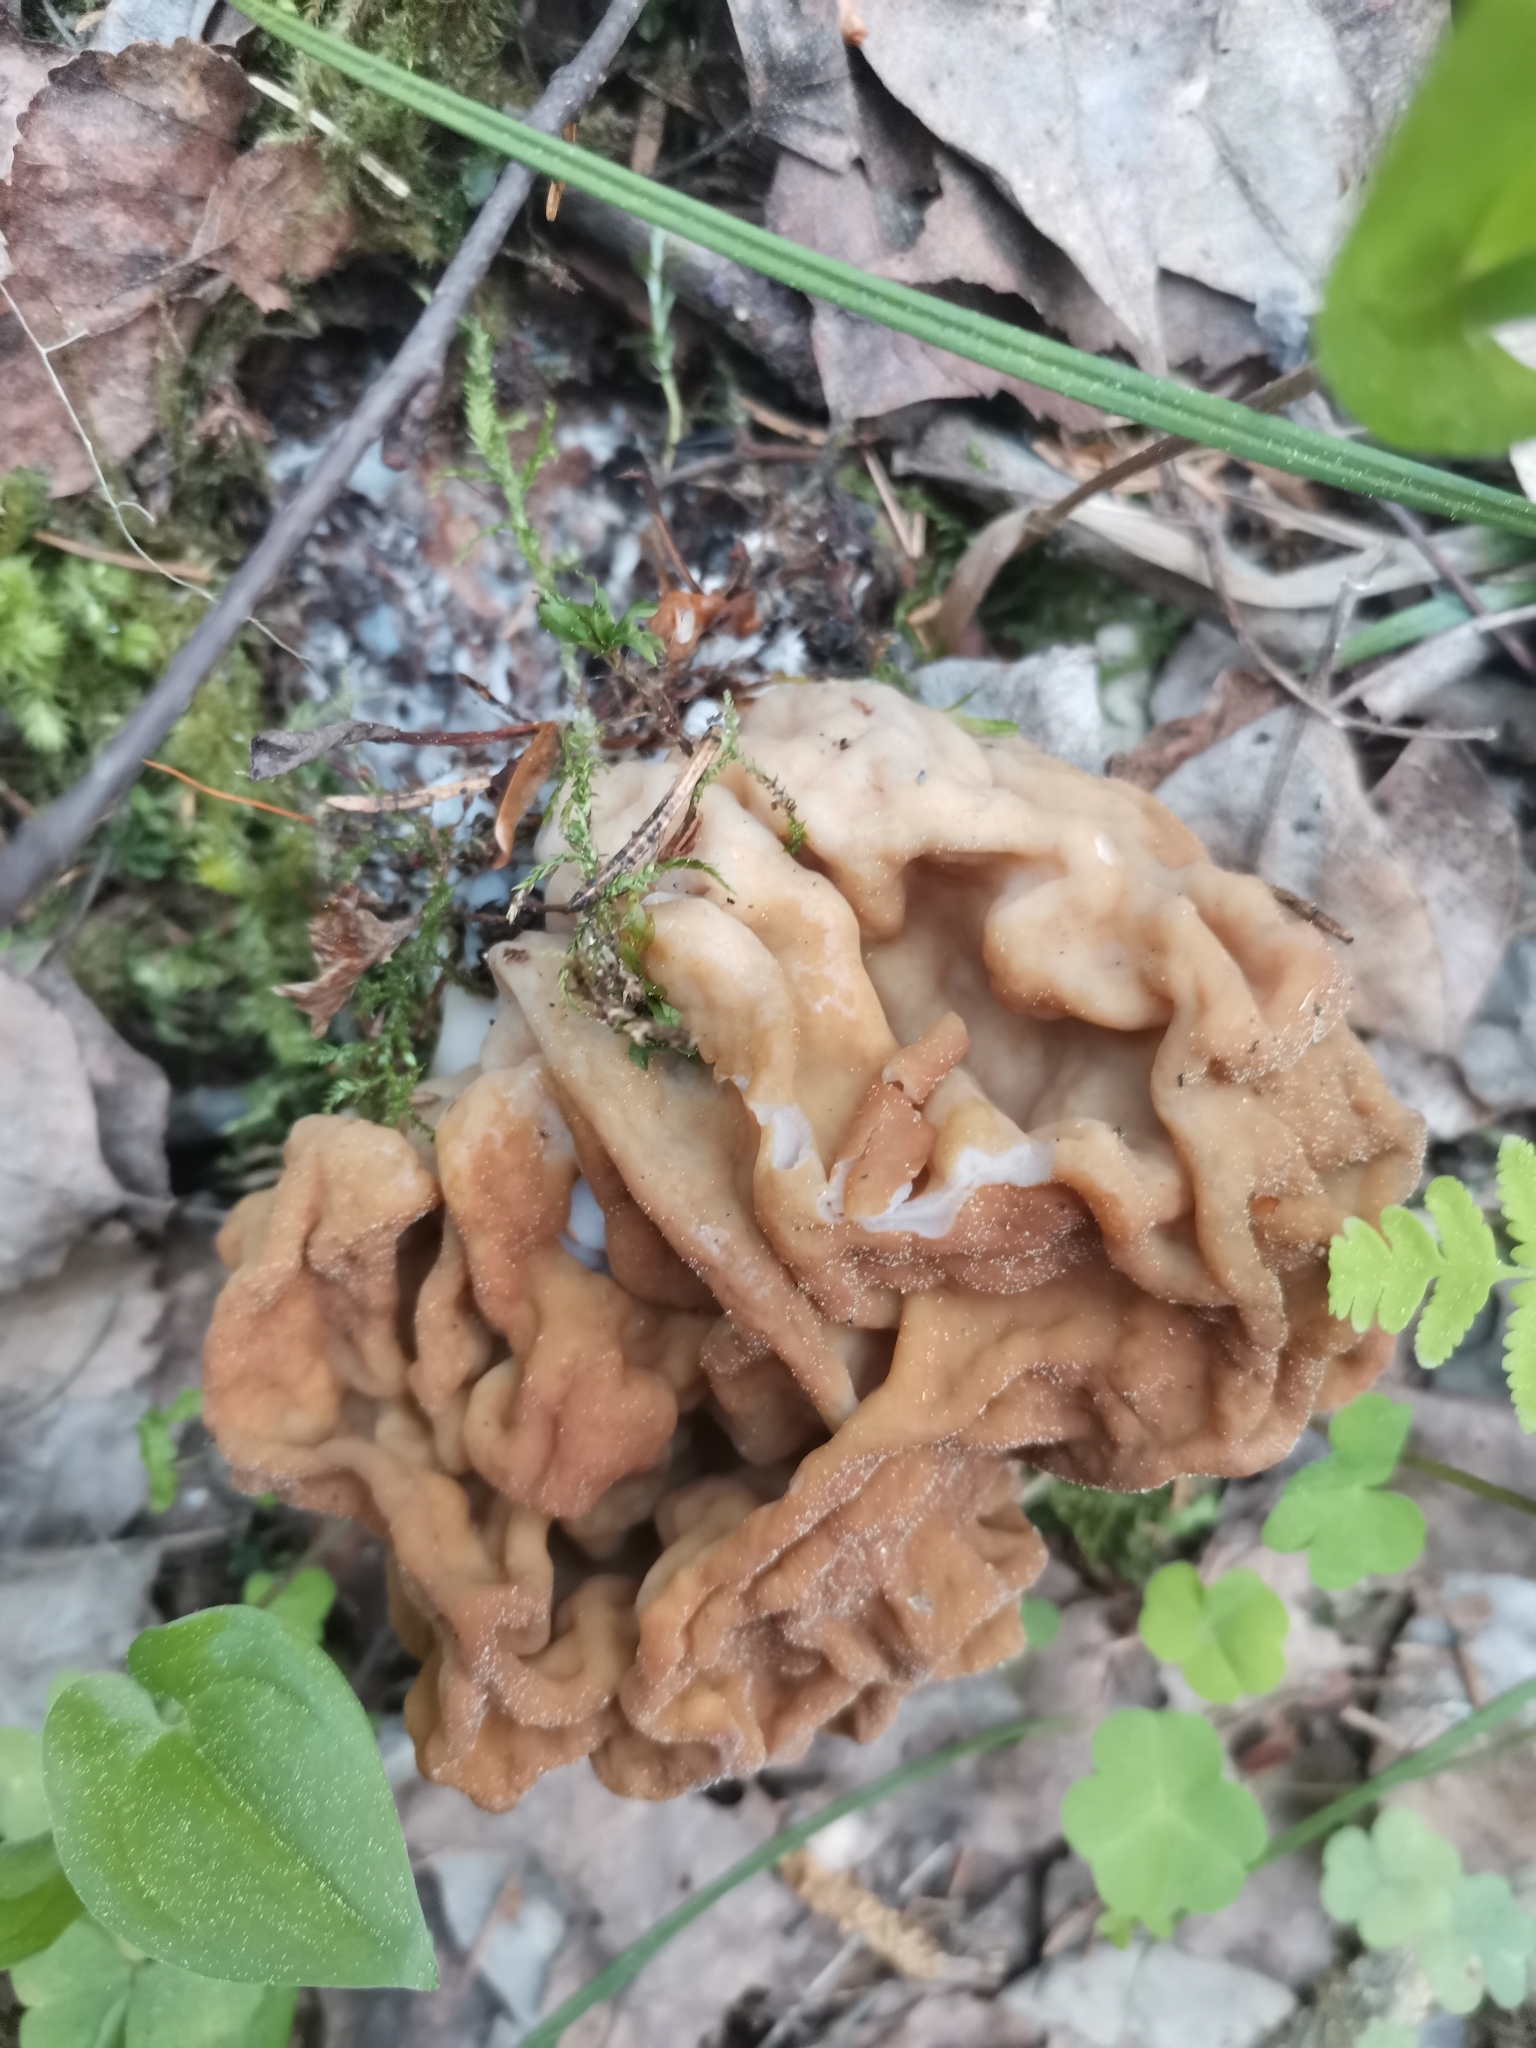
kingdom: Fungi
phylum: Ascomycota
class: Pezizomycetes
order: Pezizales
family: Discinaceae
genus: Gyromitra
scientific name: Gyromitra gigas
